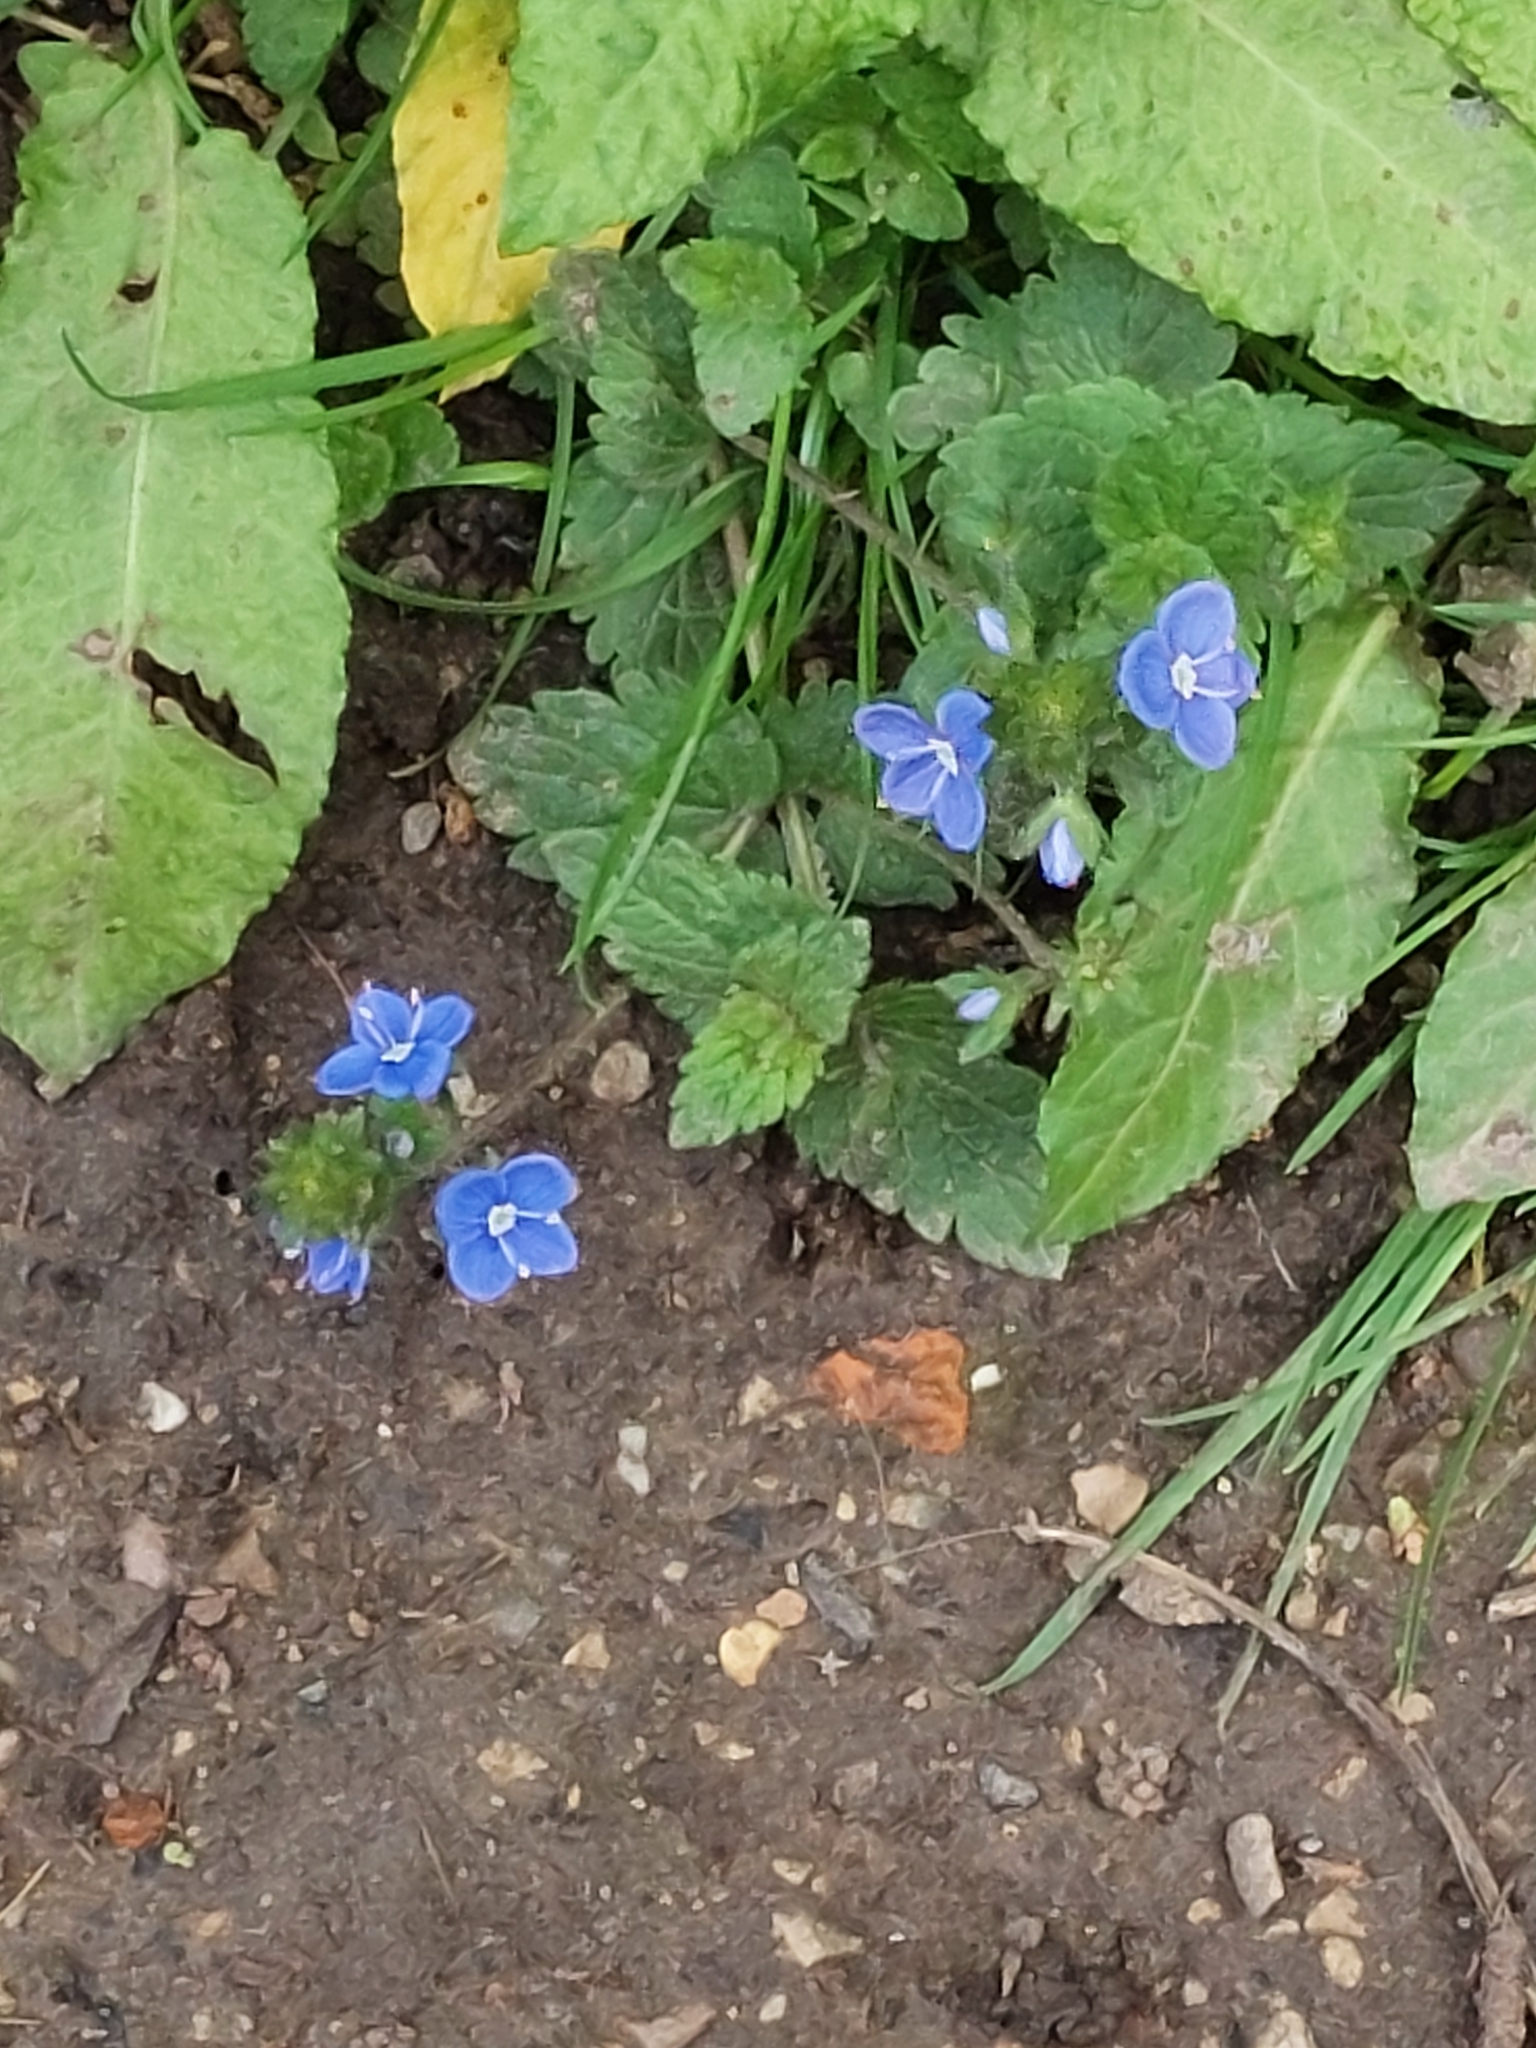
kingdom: Plantae
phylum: Tracheophyta
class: Magnoliopsida
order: Lamiales
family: Plantaginaceae
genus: Veronica
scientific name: Veronica chamaedrys
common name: Germander speedwell
